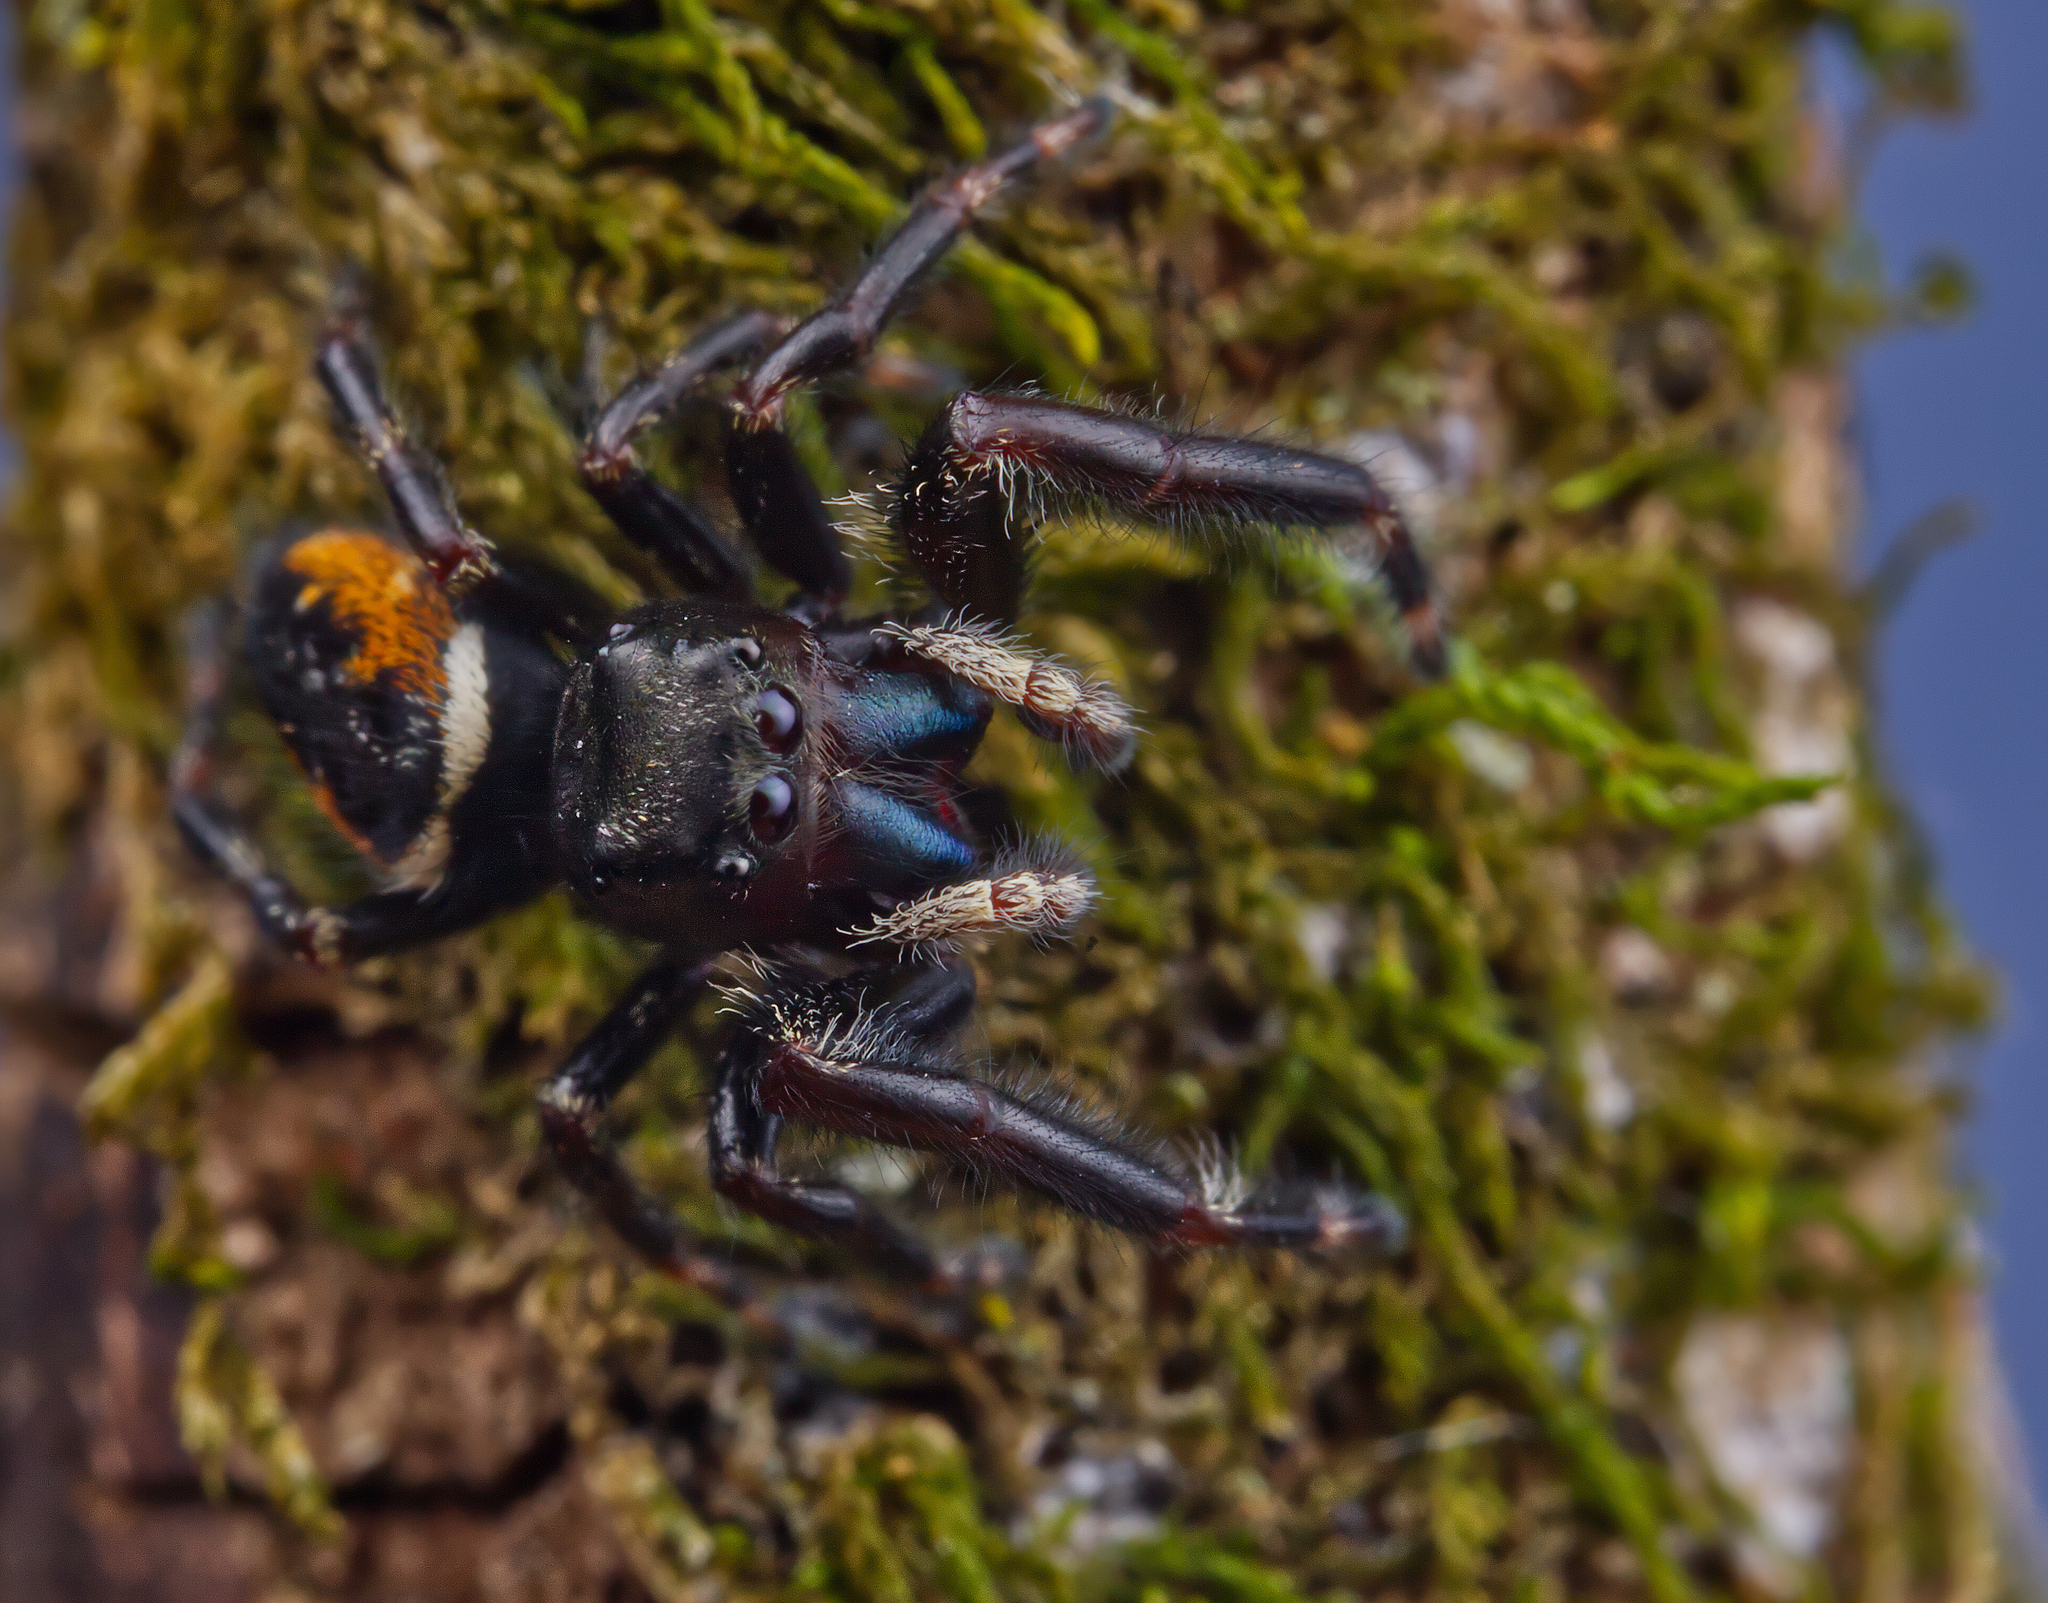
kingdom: Animalia
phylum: Arthropoda
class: Arachnida
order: Araneae
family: Salticidae
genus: Phidippus
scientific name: Phidippus clarus
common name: Brilliant jumping spider
